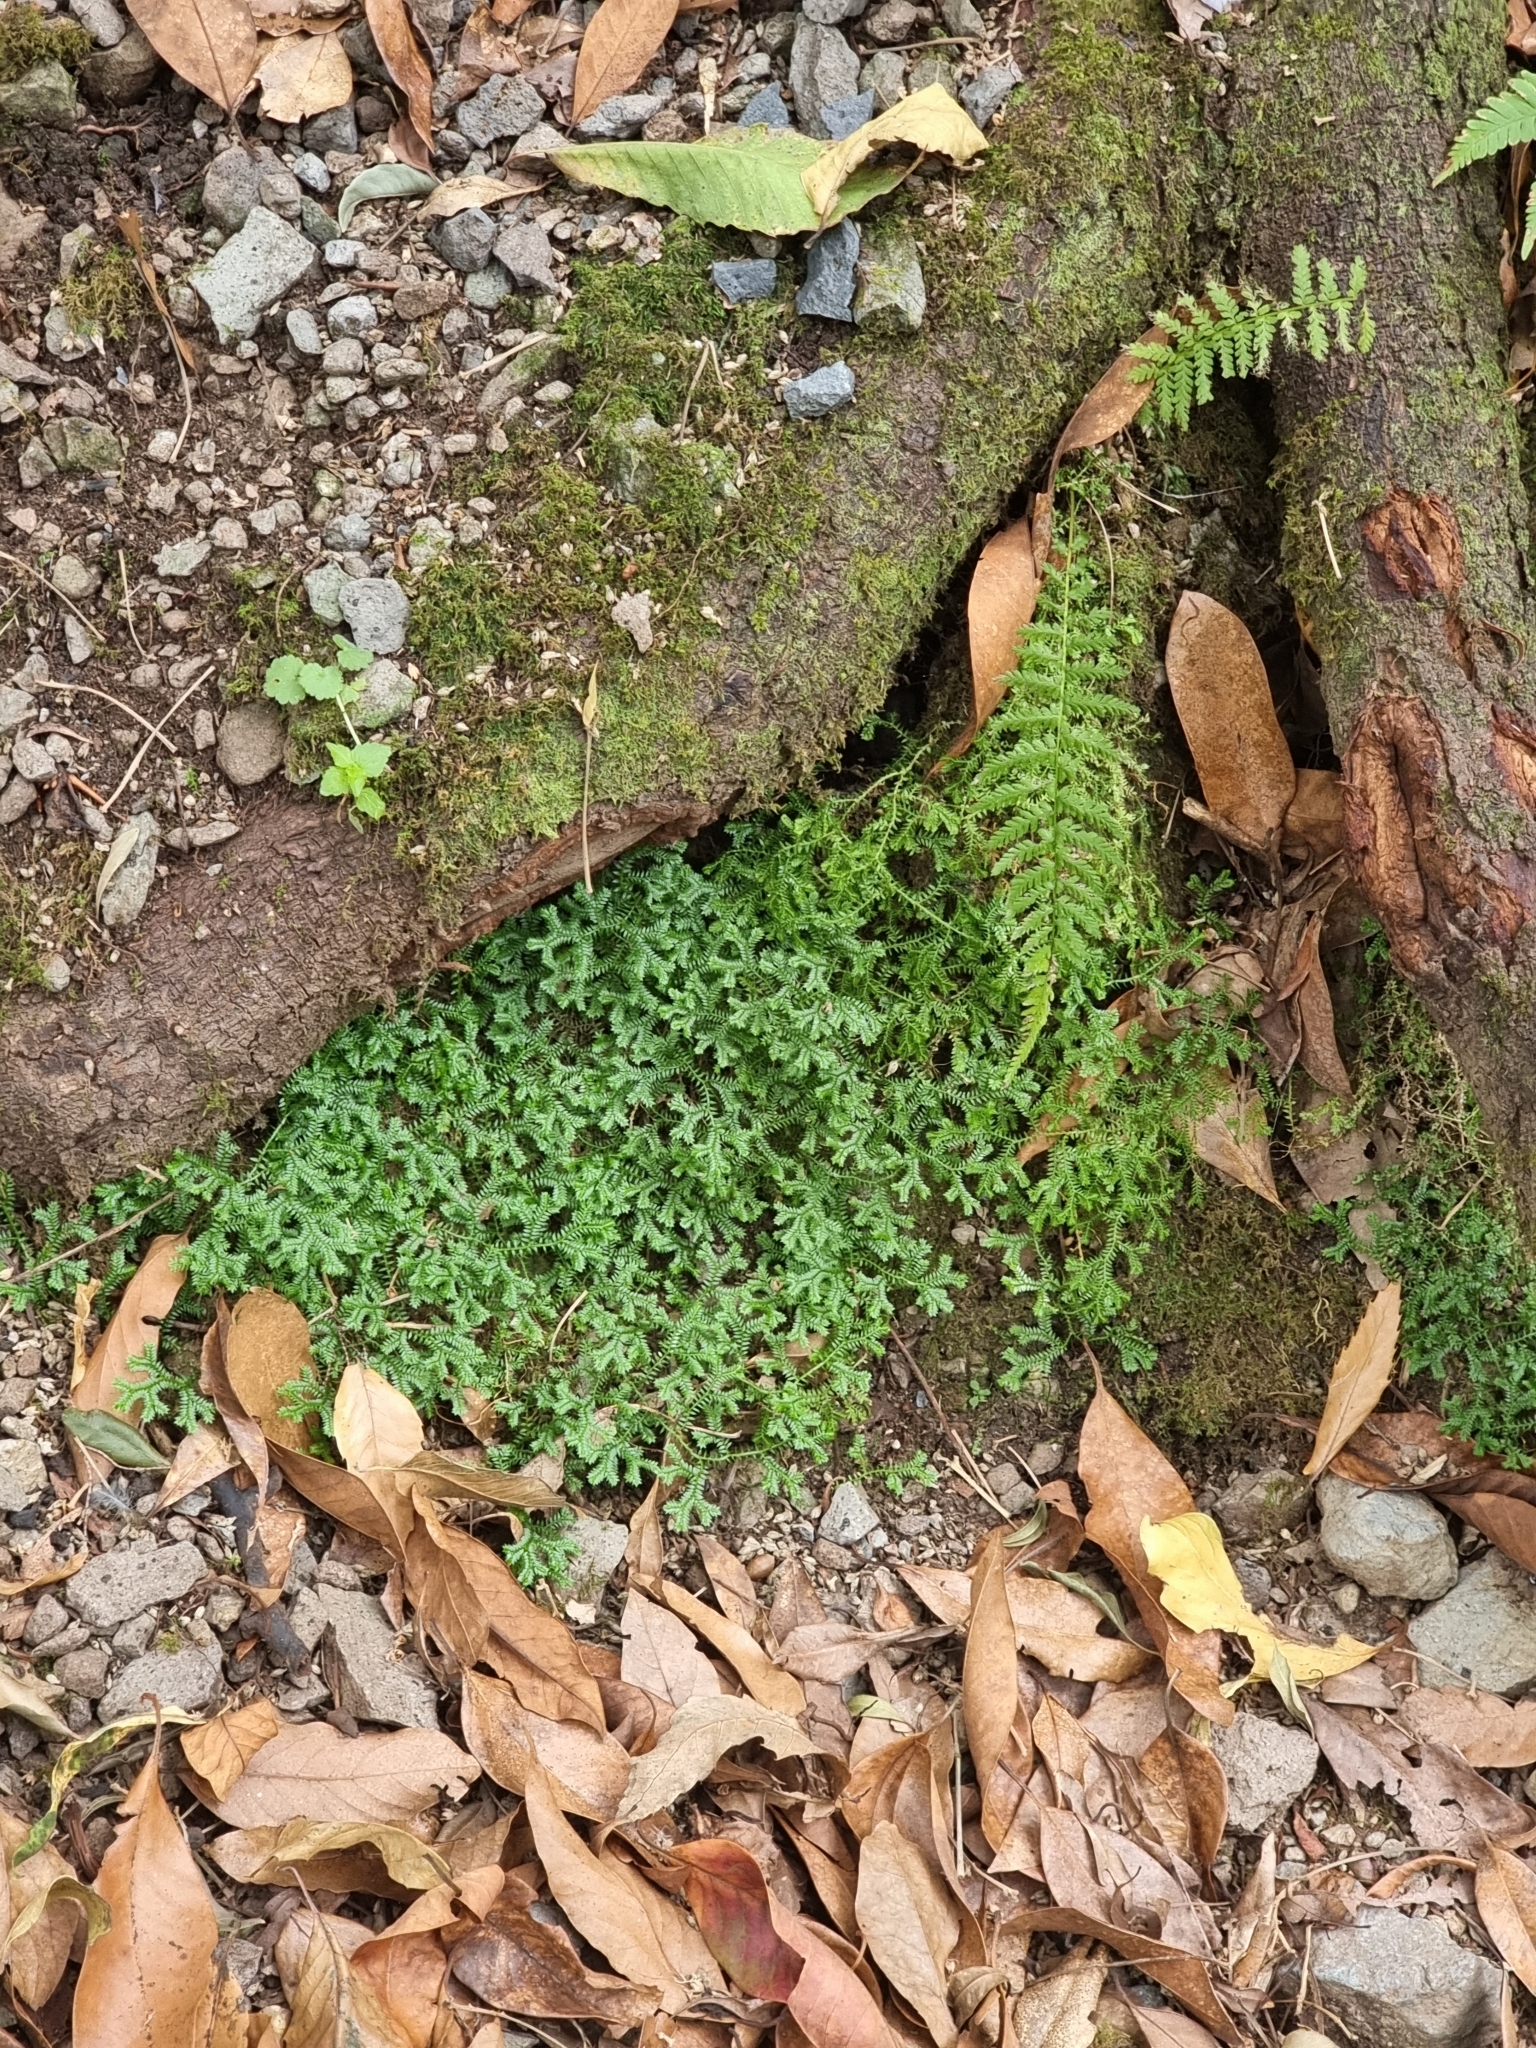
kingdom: Plantae
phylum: Tracheophyta
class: Lycopodiopsida
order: Selaginellales
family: Selaginellaceae
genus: Selaginella
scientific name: Selaginella kraussiana
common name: Krauss' spikemoss
